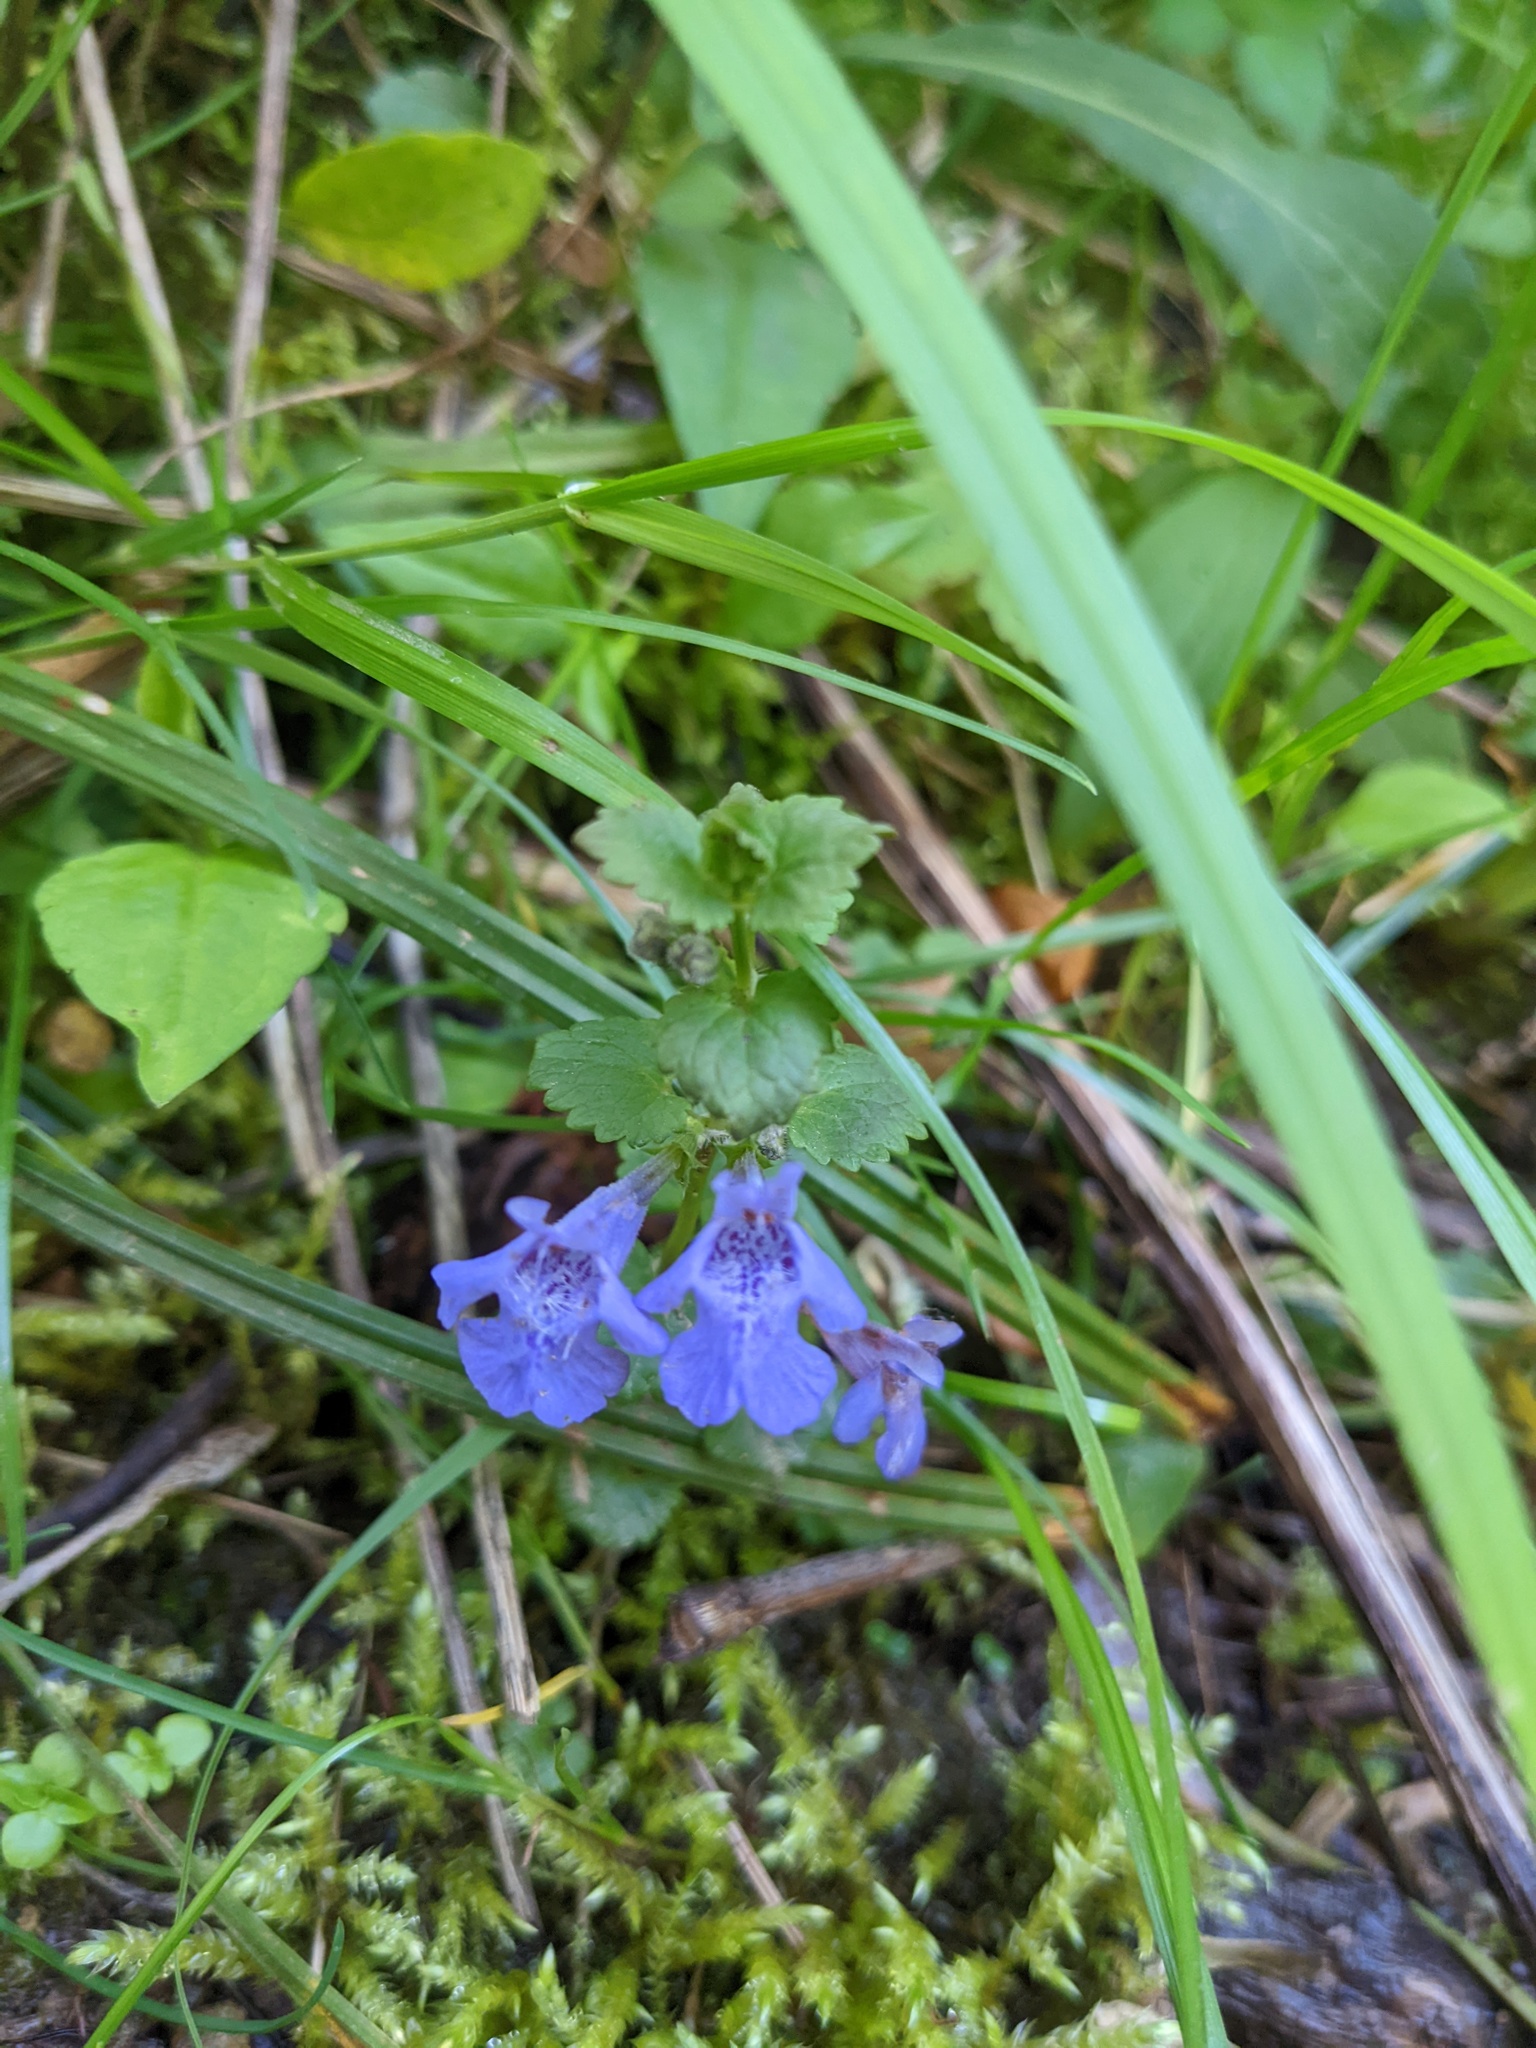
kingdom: Plantae
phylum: Tracheophyta
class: Magnoliopsida
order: Lamiales
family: Lamiaceae
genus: Glechoma
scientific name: Glechoma hederacea
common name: Ground ivy
